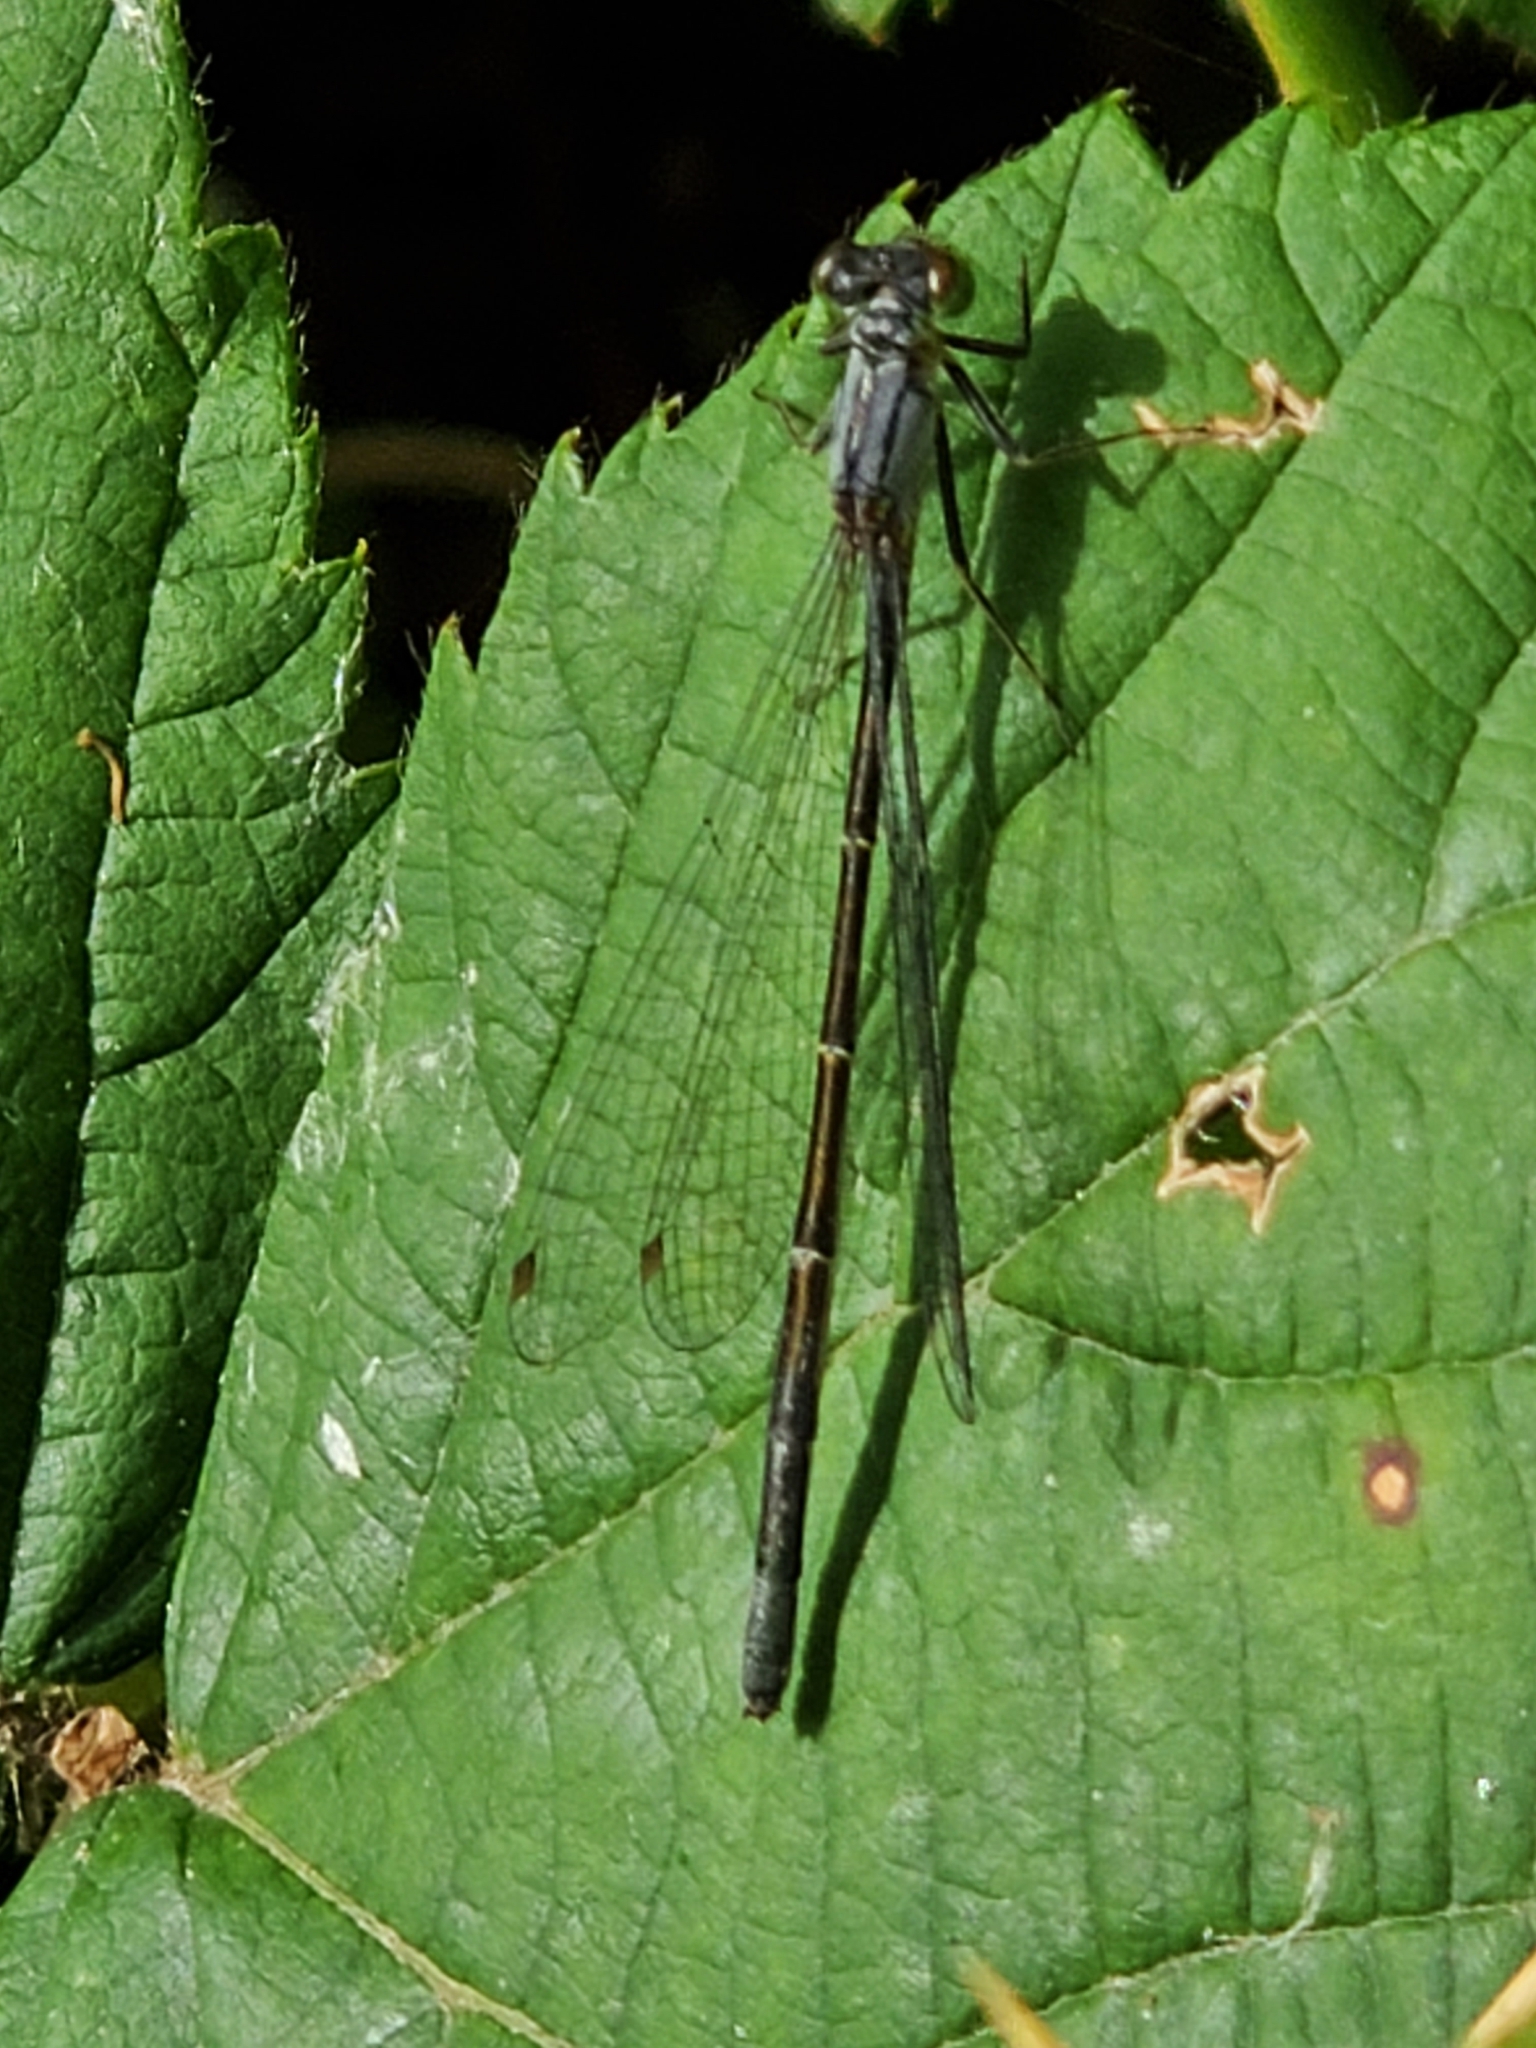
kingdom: Animalia
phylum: Arthropoda
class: Insecta
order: Odonata
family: Coenagrionidae
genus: Ischnura
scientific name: Ischnura cervula
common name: Pacific forktail
